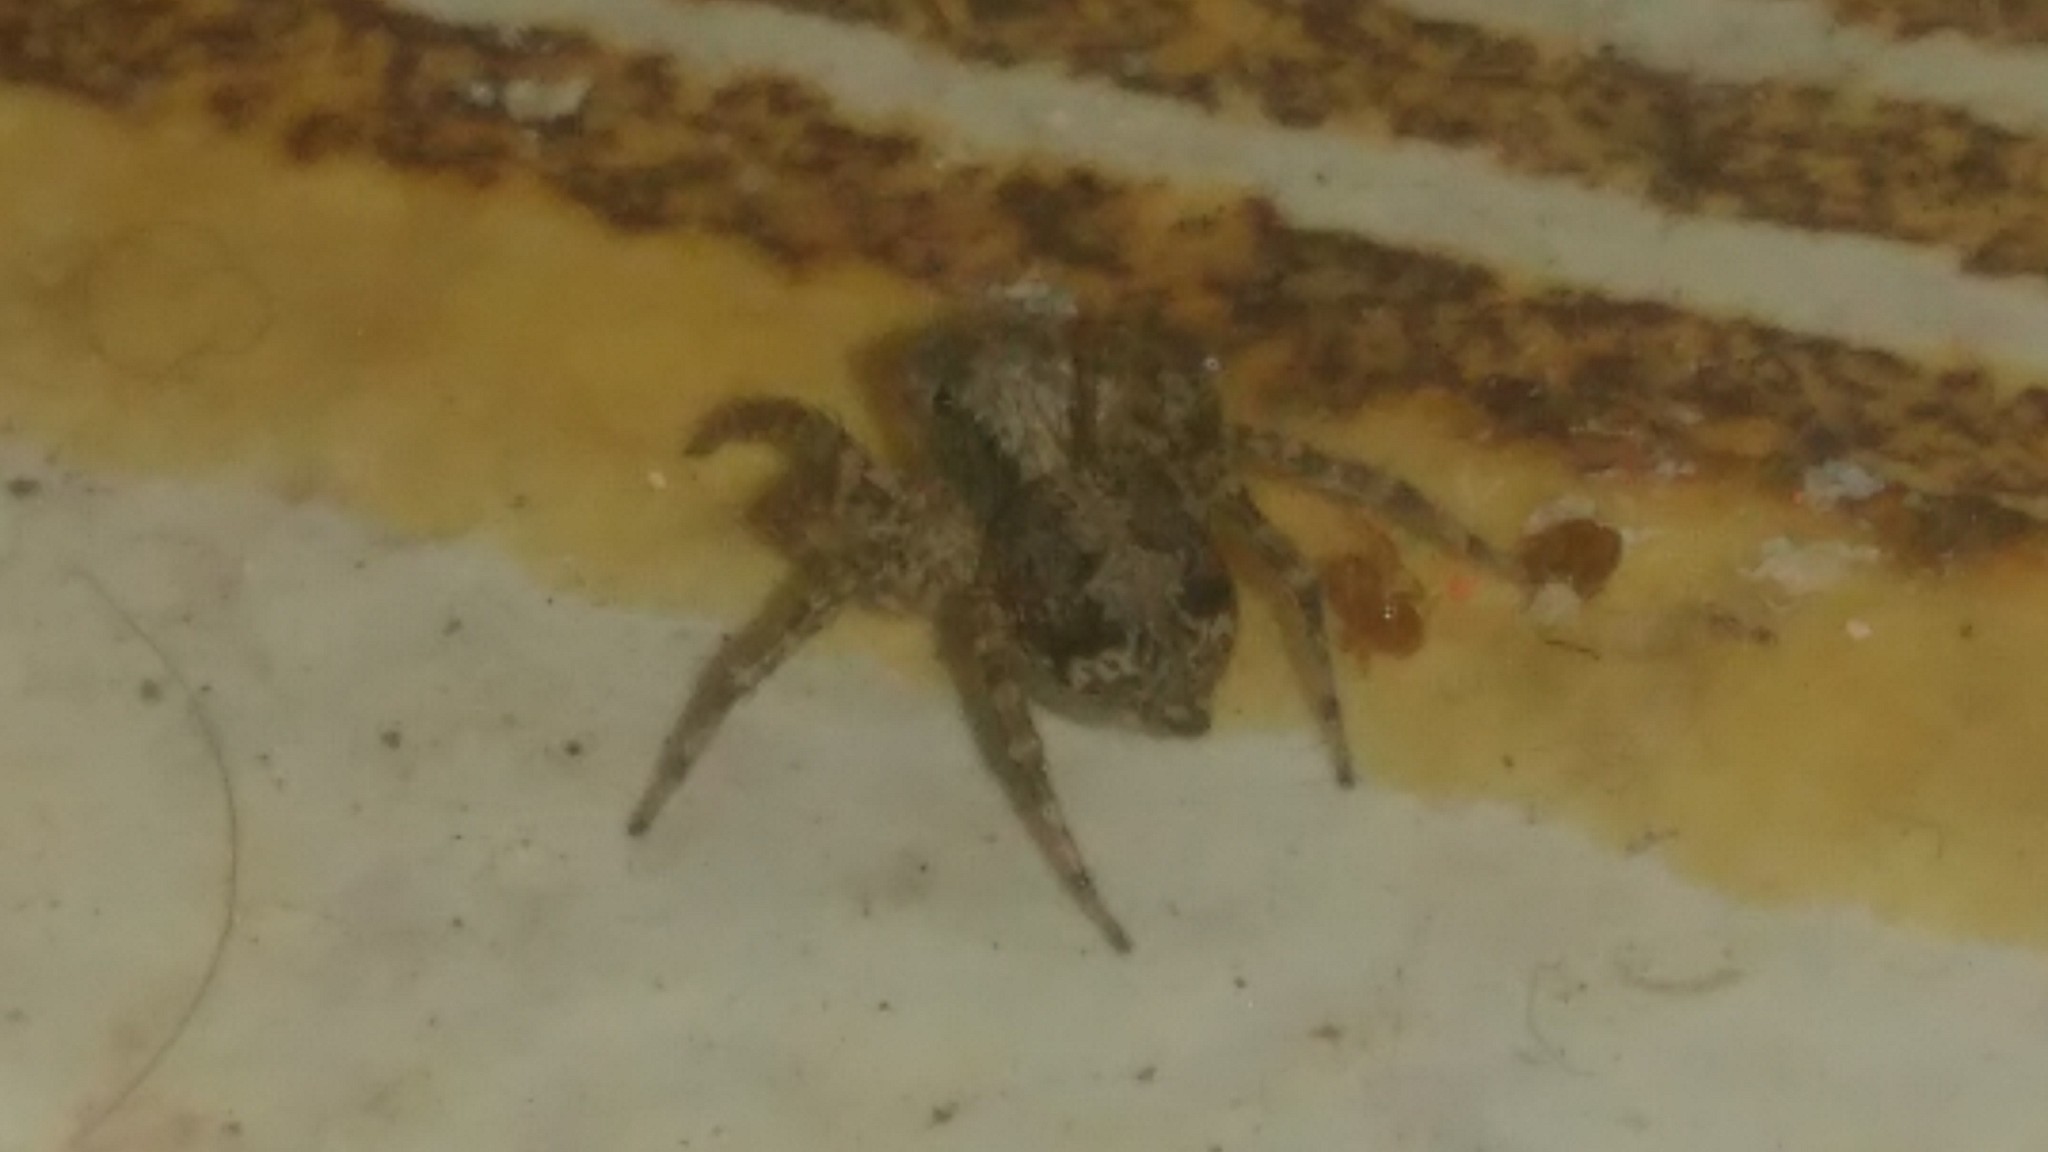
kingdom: Animalia
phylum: Arthropoda
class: Arachnida
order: Araneae
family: Salticidae
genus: Saitis
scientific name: Saitis variegatus
